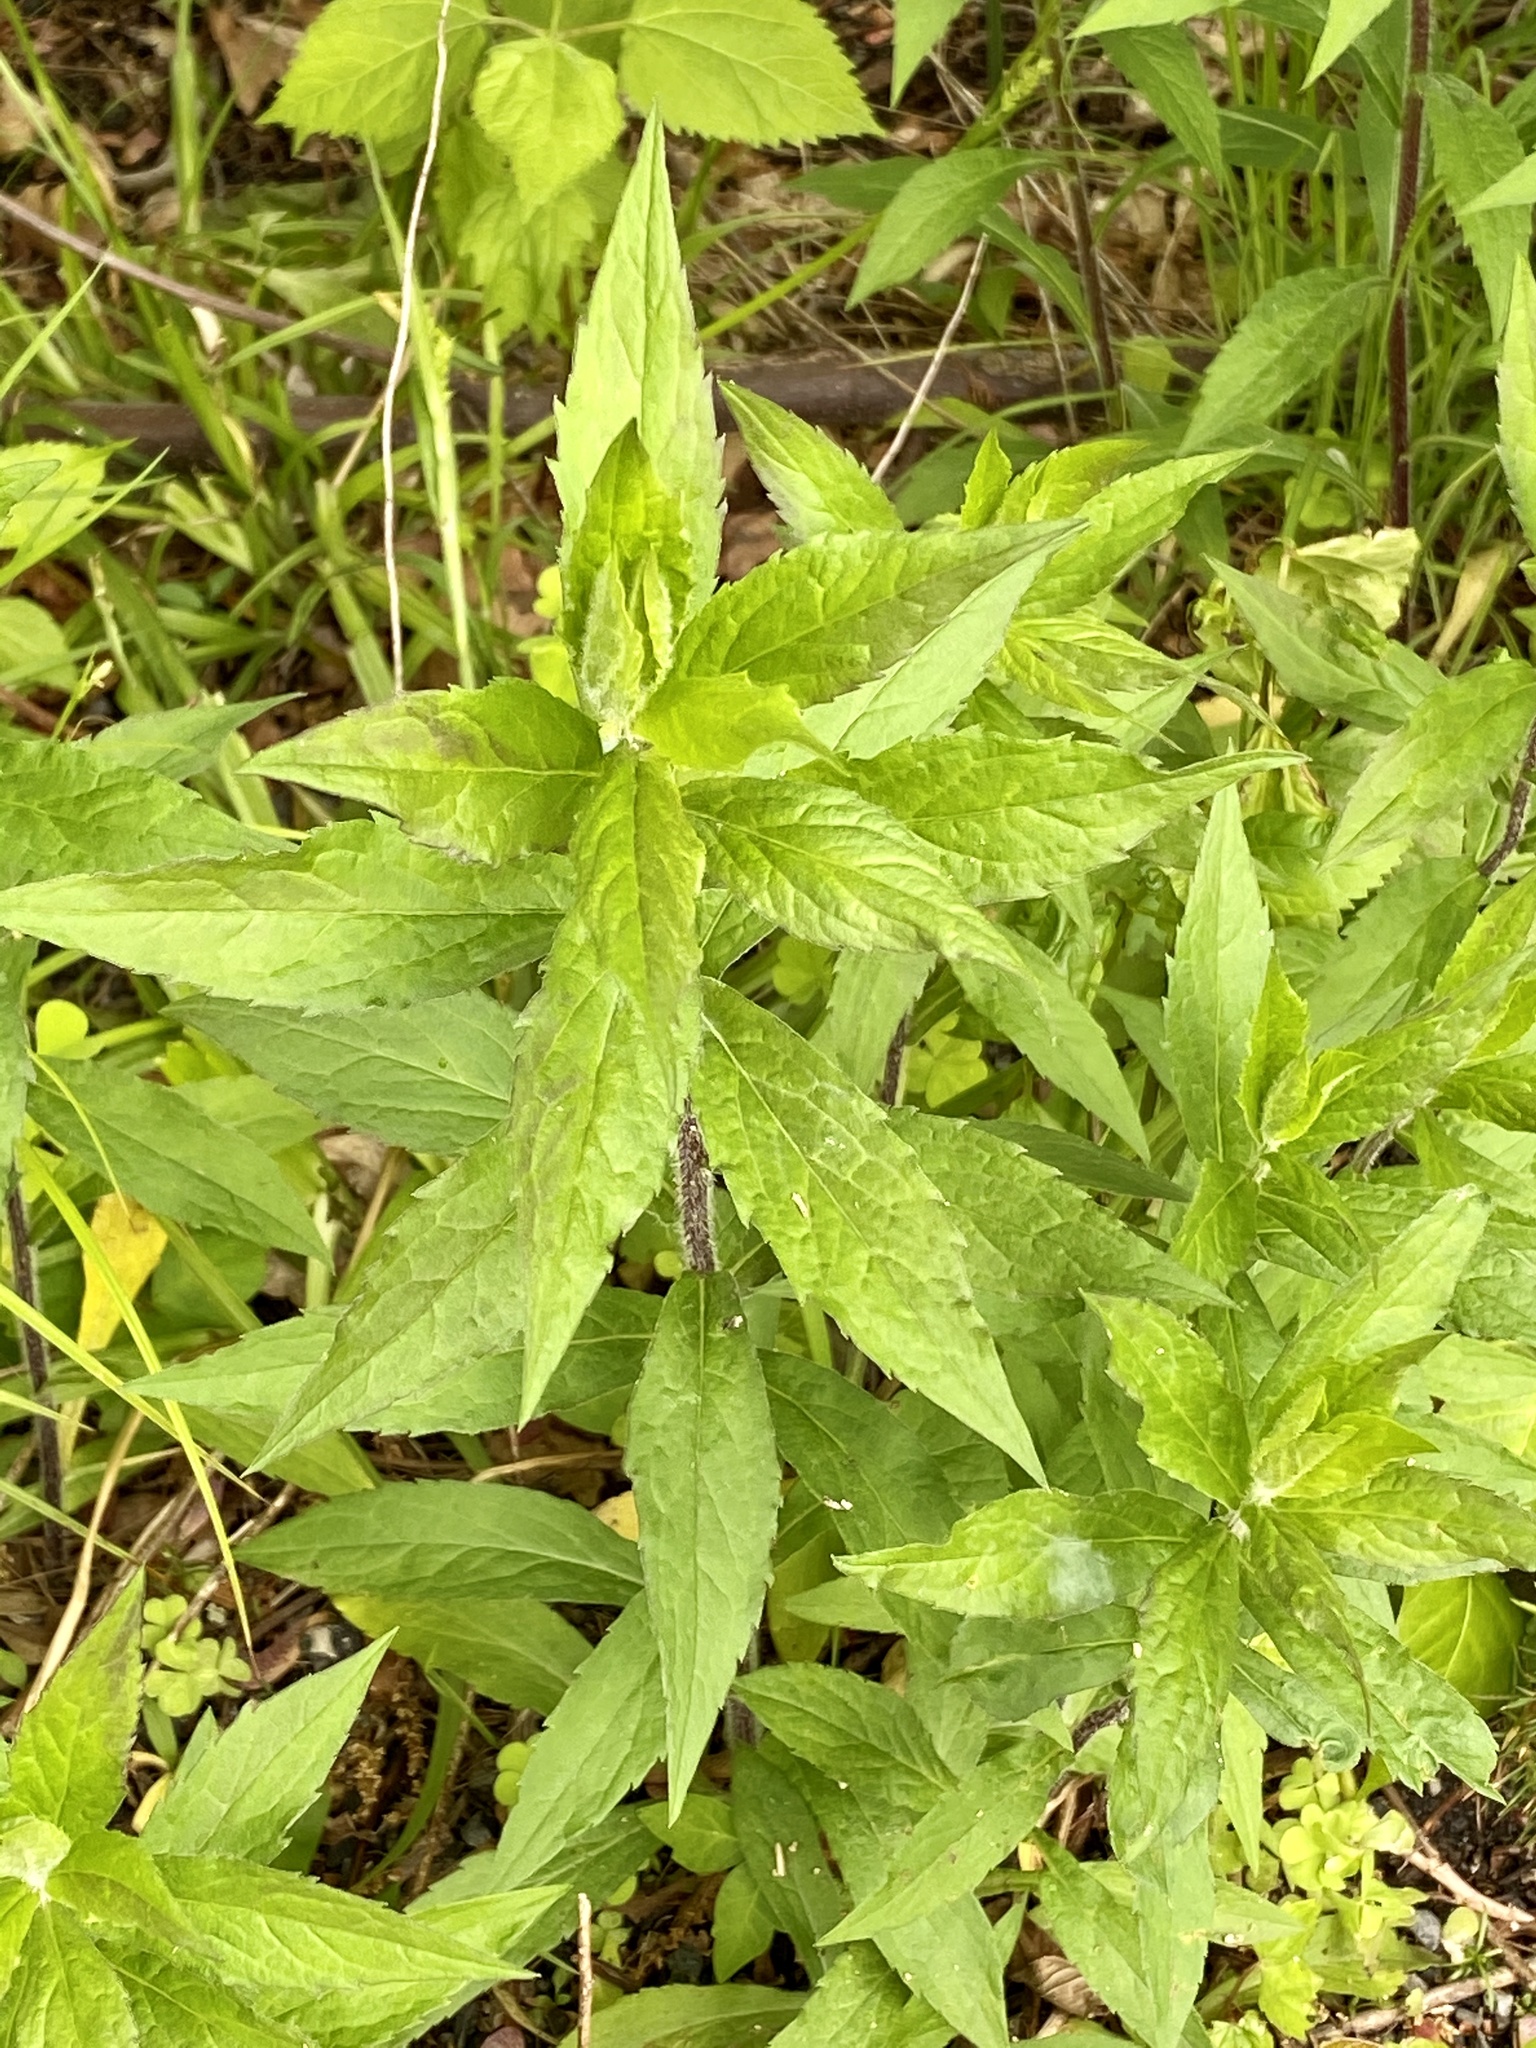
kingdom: Plantae
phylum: Tracheophyta
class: Magnoliopsida
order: Asterales
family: Asteraceae
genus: Solidago
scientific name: Solidago rugosa
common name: Rough-stemmed goldenrod
